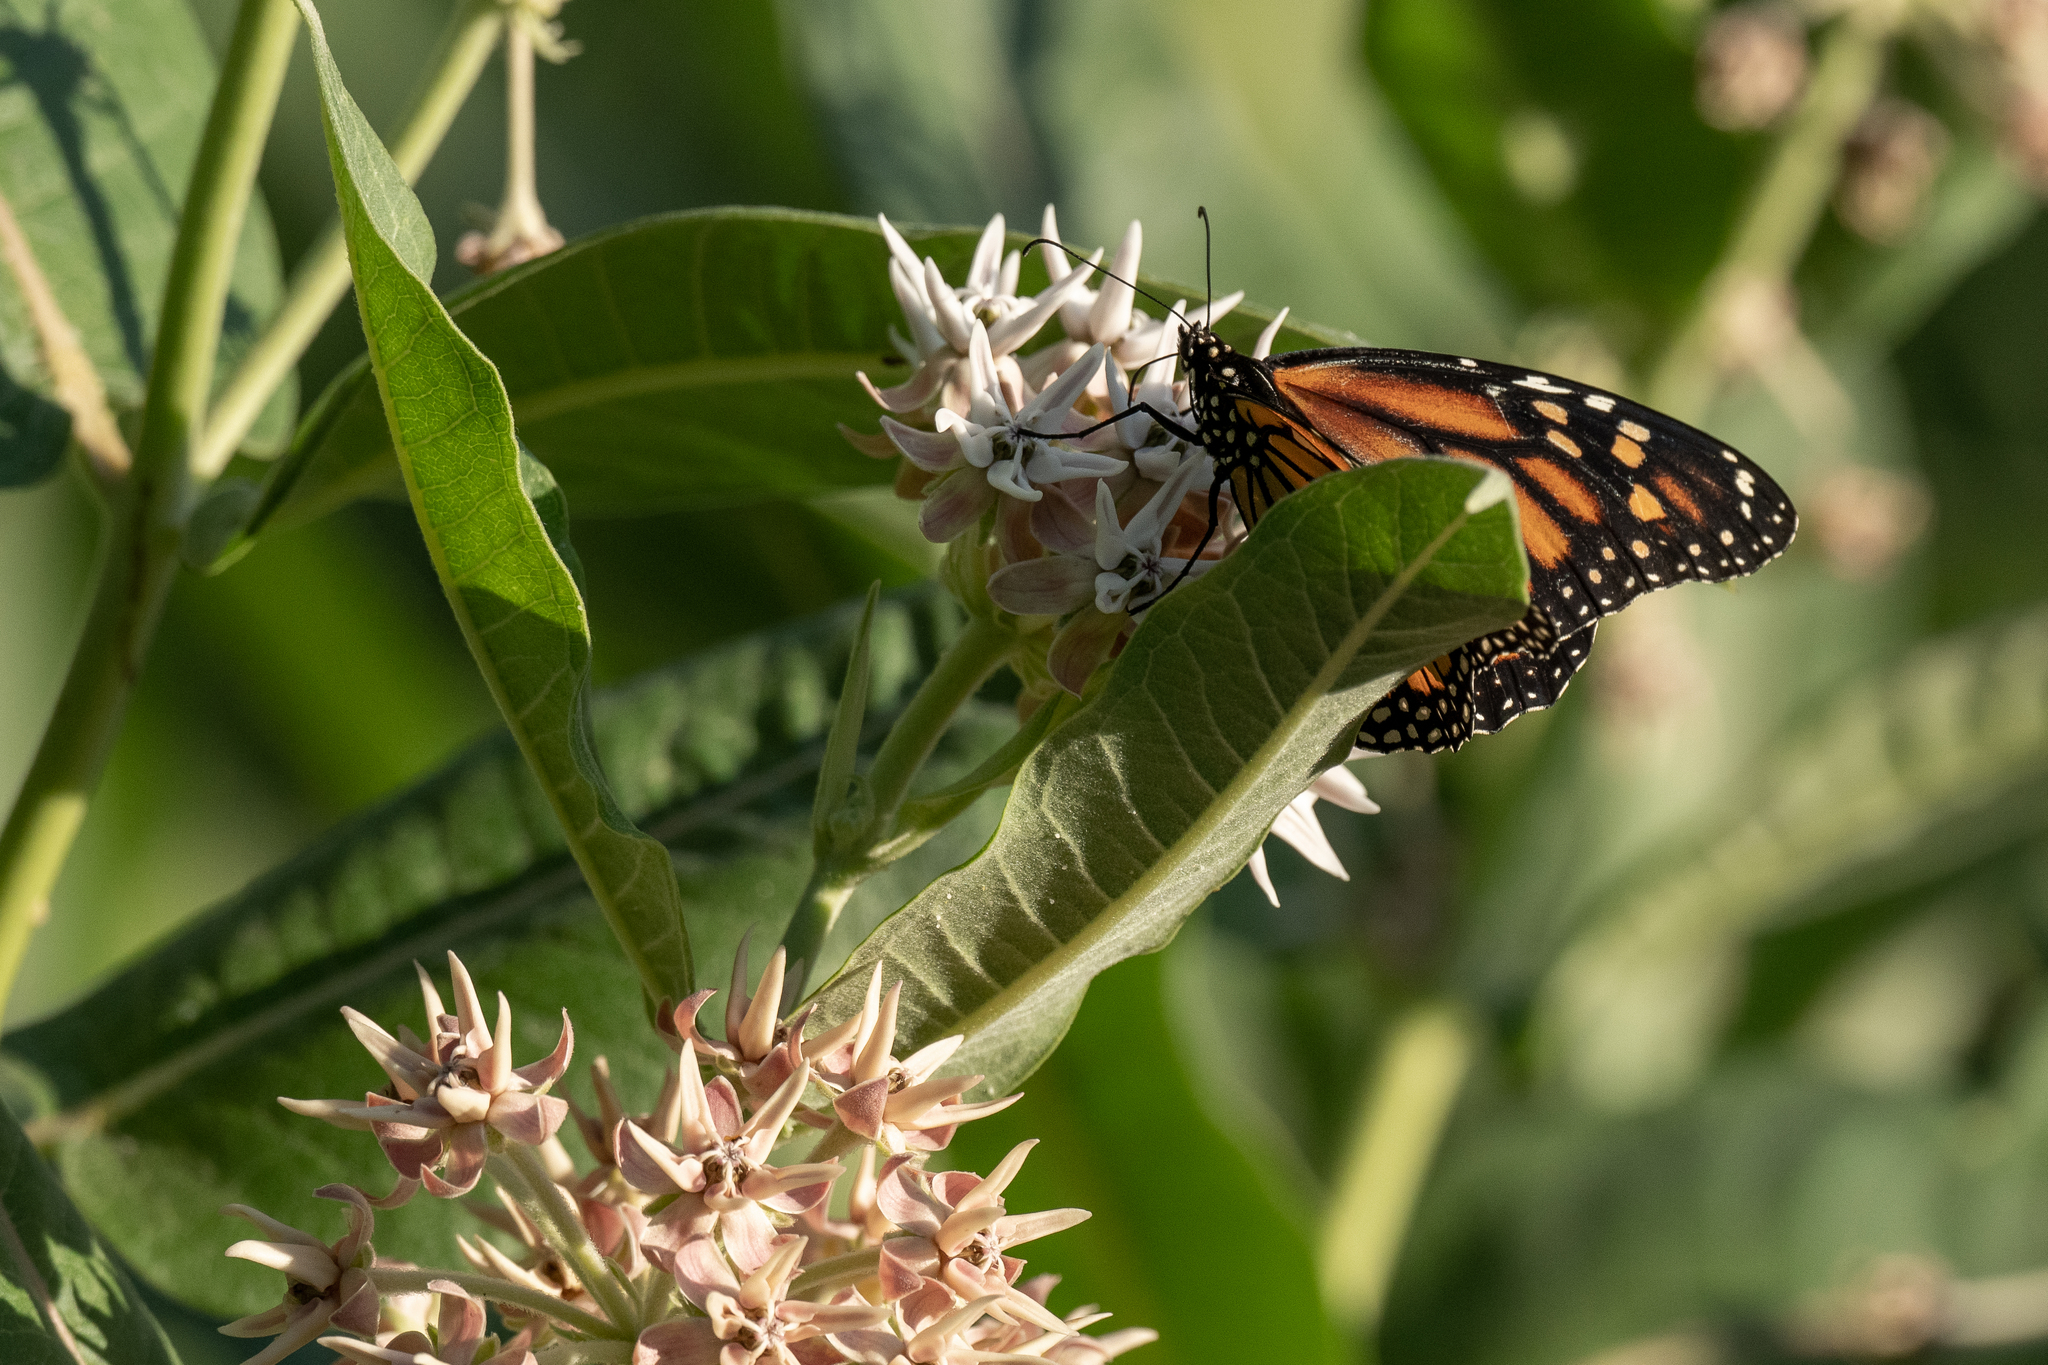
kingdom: Animalia
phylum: Arthropoda
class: Insecta
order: Lepidoptera
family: Nymphalidae
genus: Danaus
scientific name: Danaus plexippus
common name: Monarch
